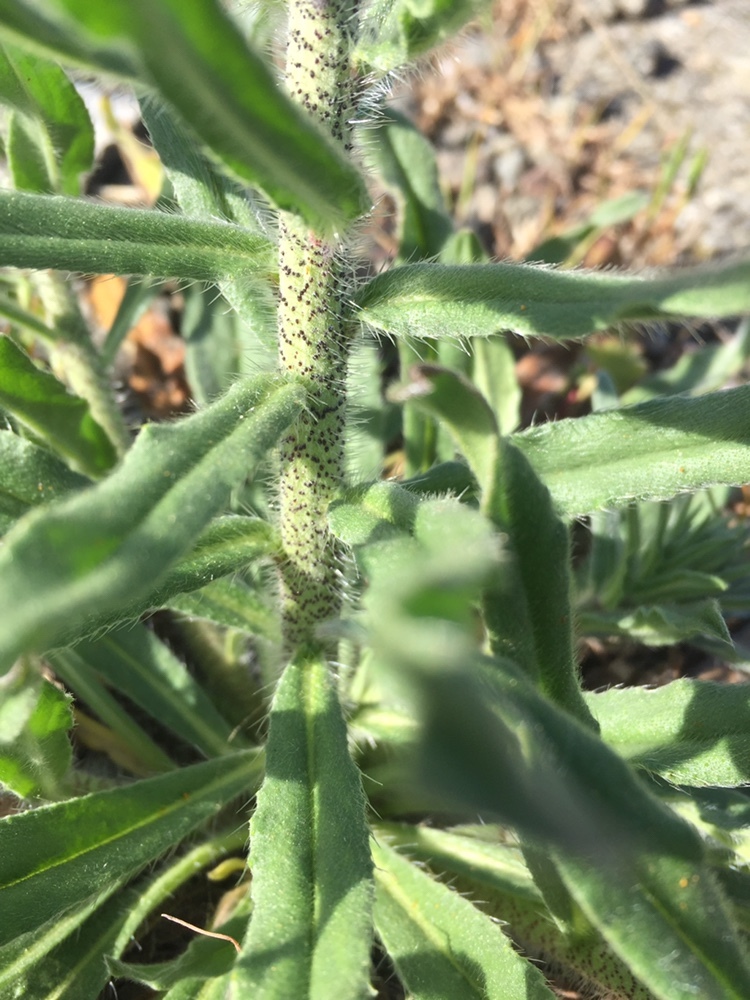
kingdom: Plantae
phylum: Tracheophyta
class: Magnoliopsida
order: Boraginales
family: Boraginaceae
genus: Echium
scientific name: Echium vulgare
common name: Common viper's bugloss
